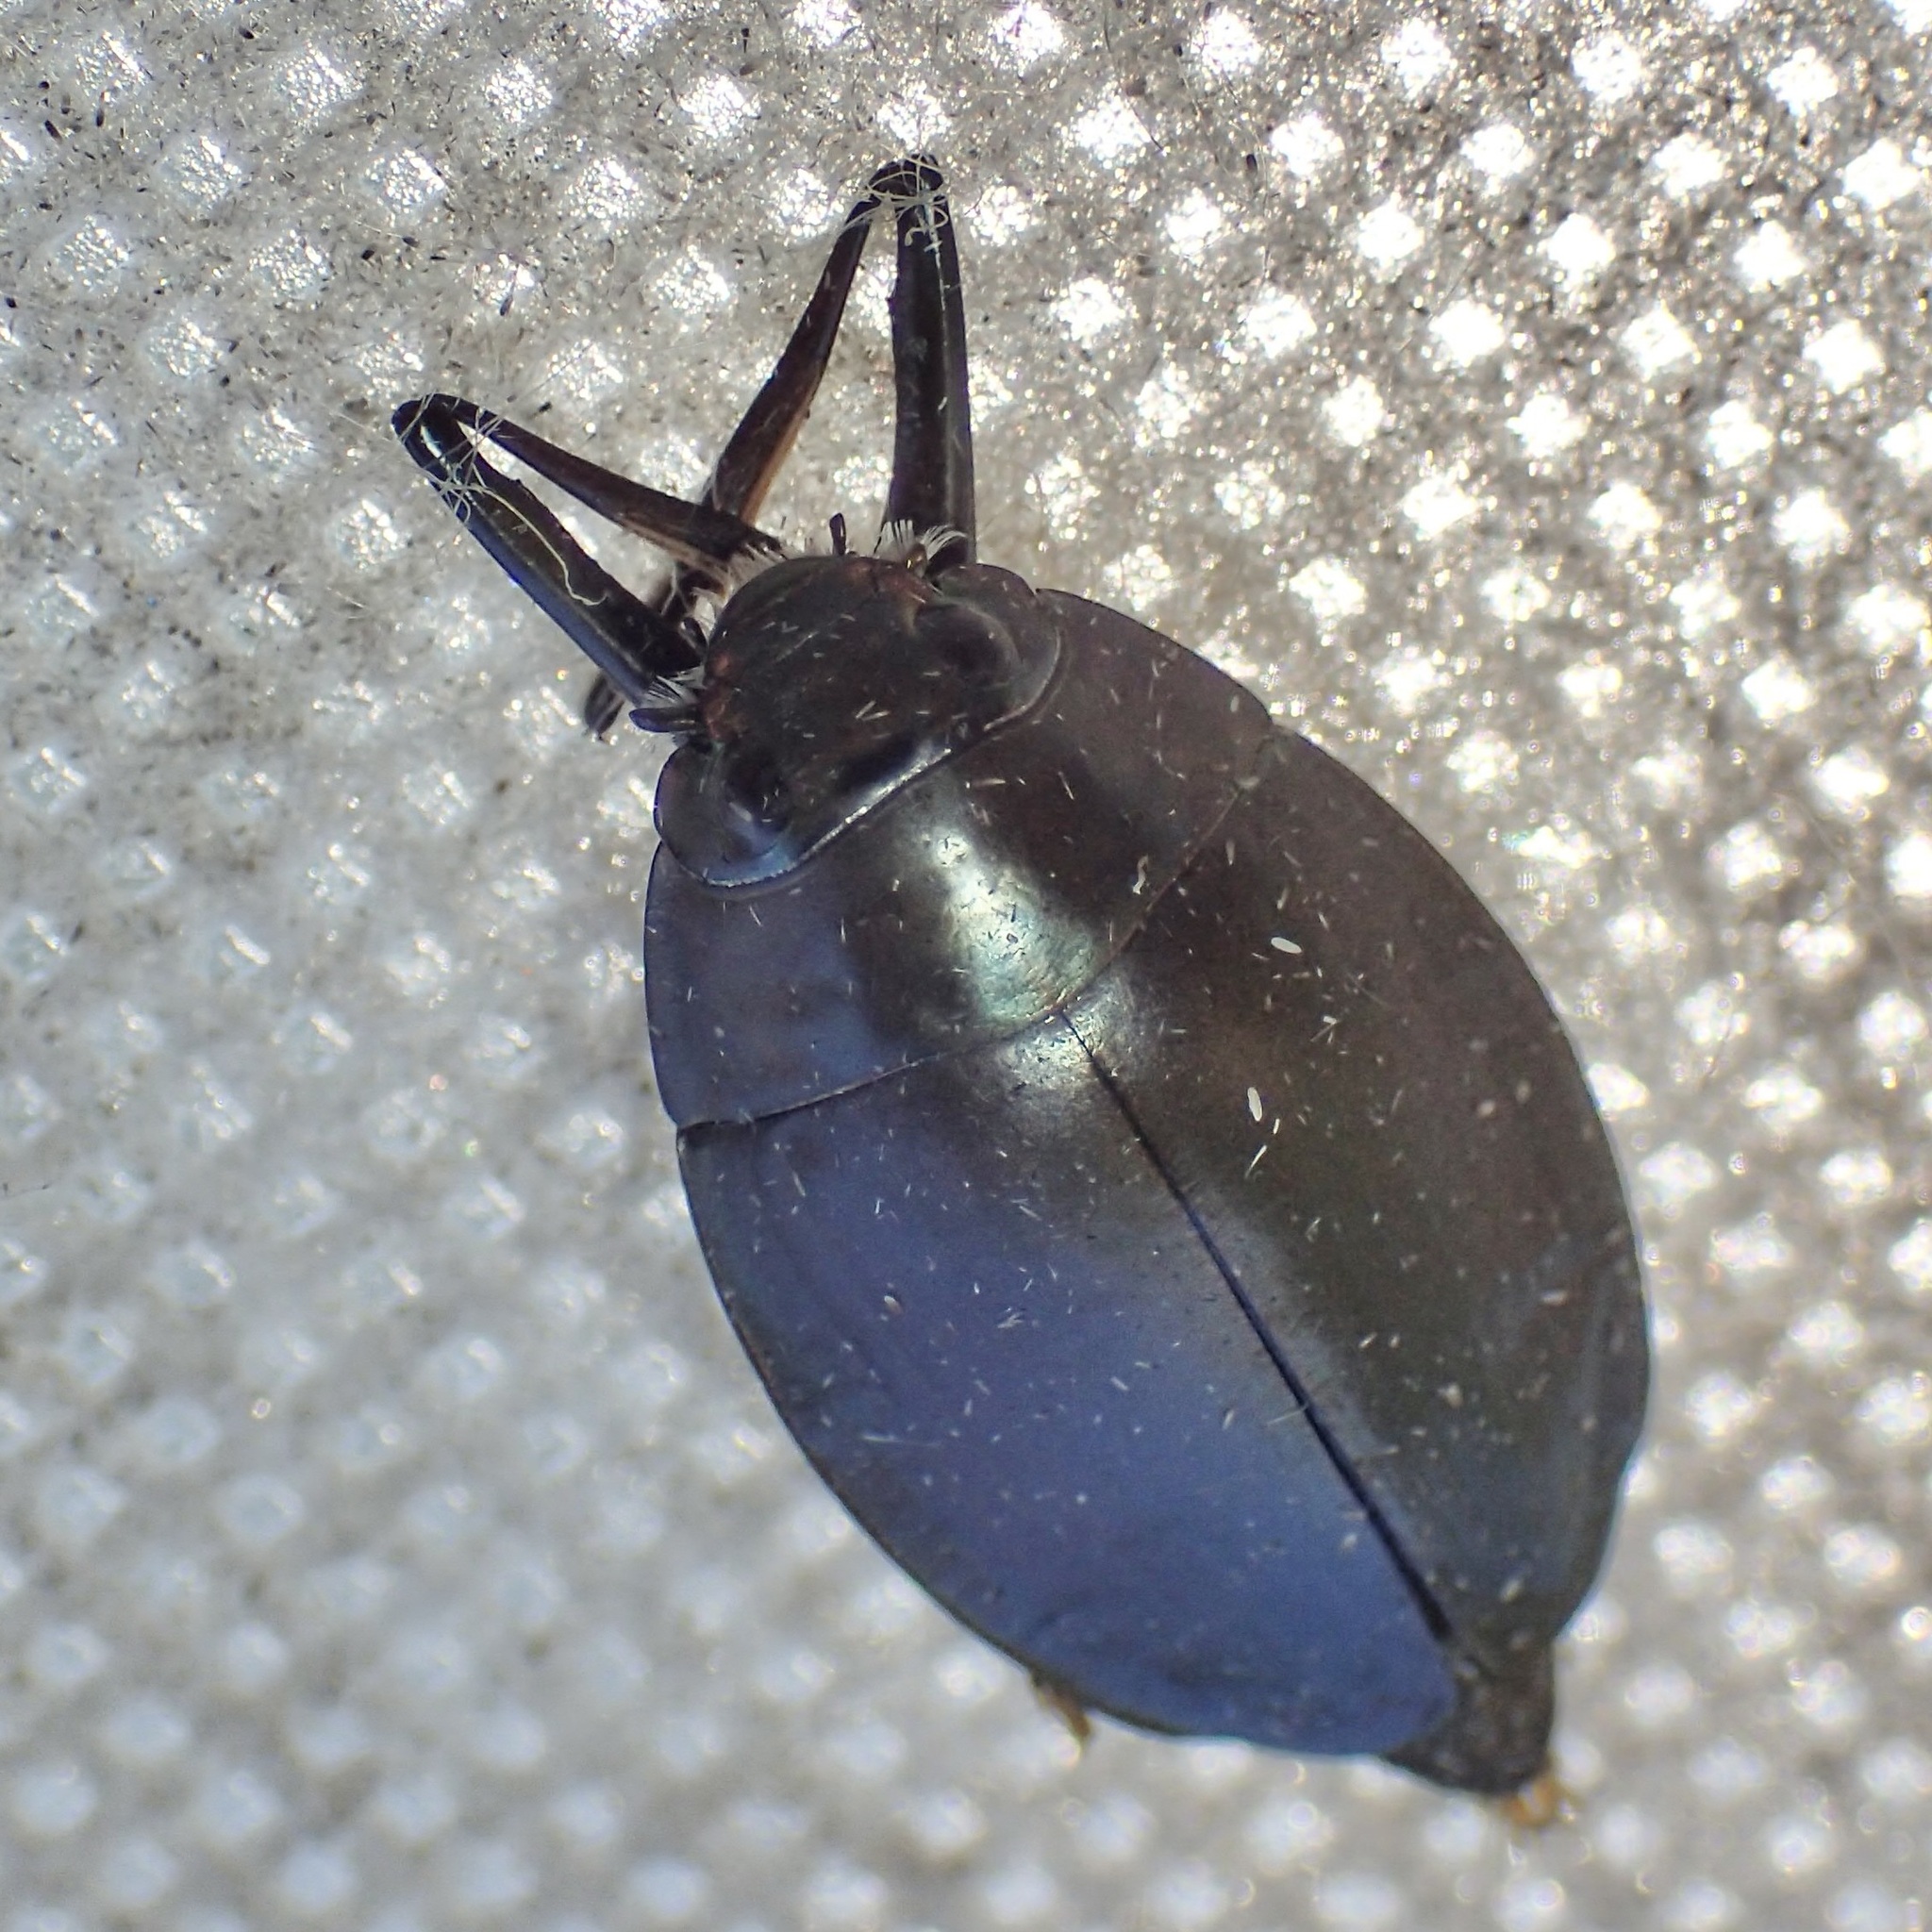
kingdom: Animalia
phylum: Arthropoda
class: Insecta
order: Coleoptera
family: Gyrinidae
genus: Dineutus
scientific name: Dineutus sublineatus
